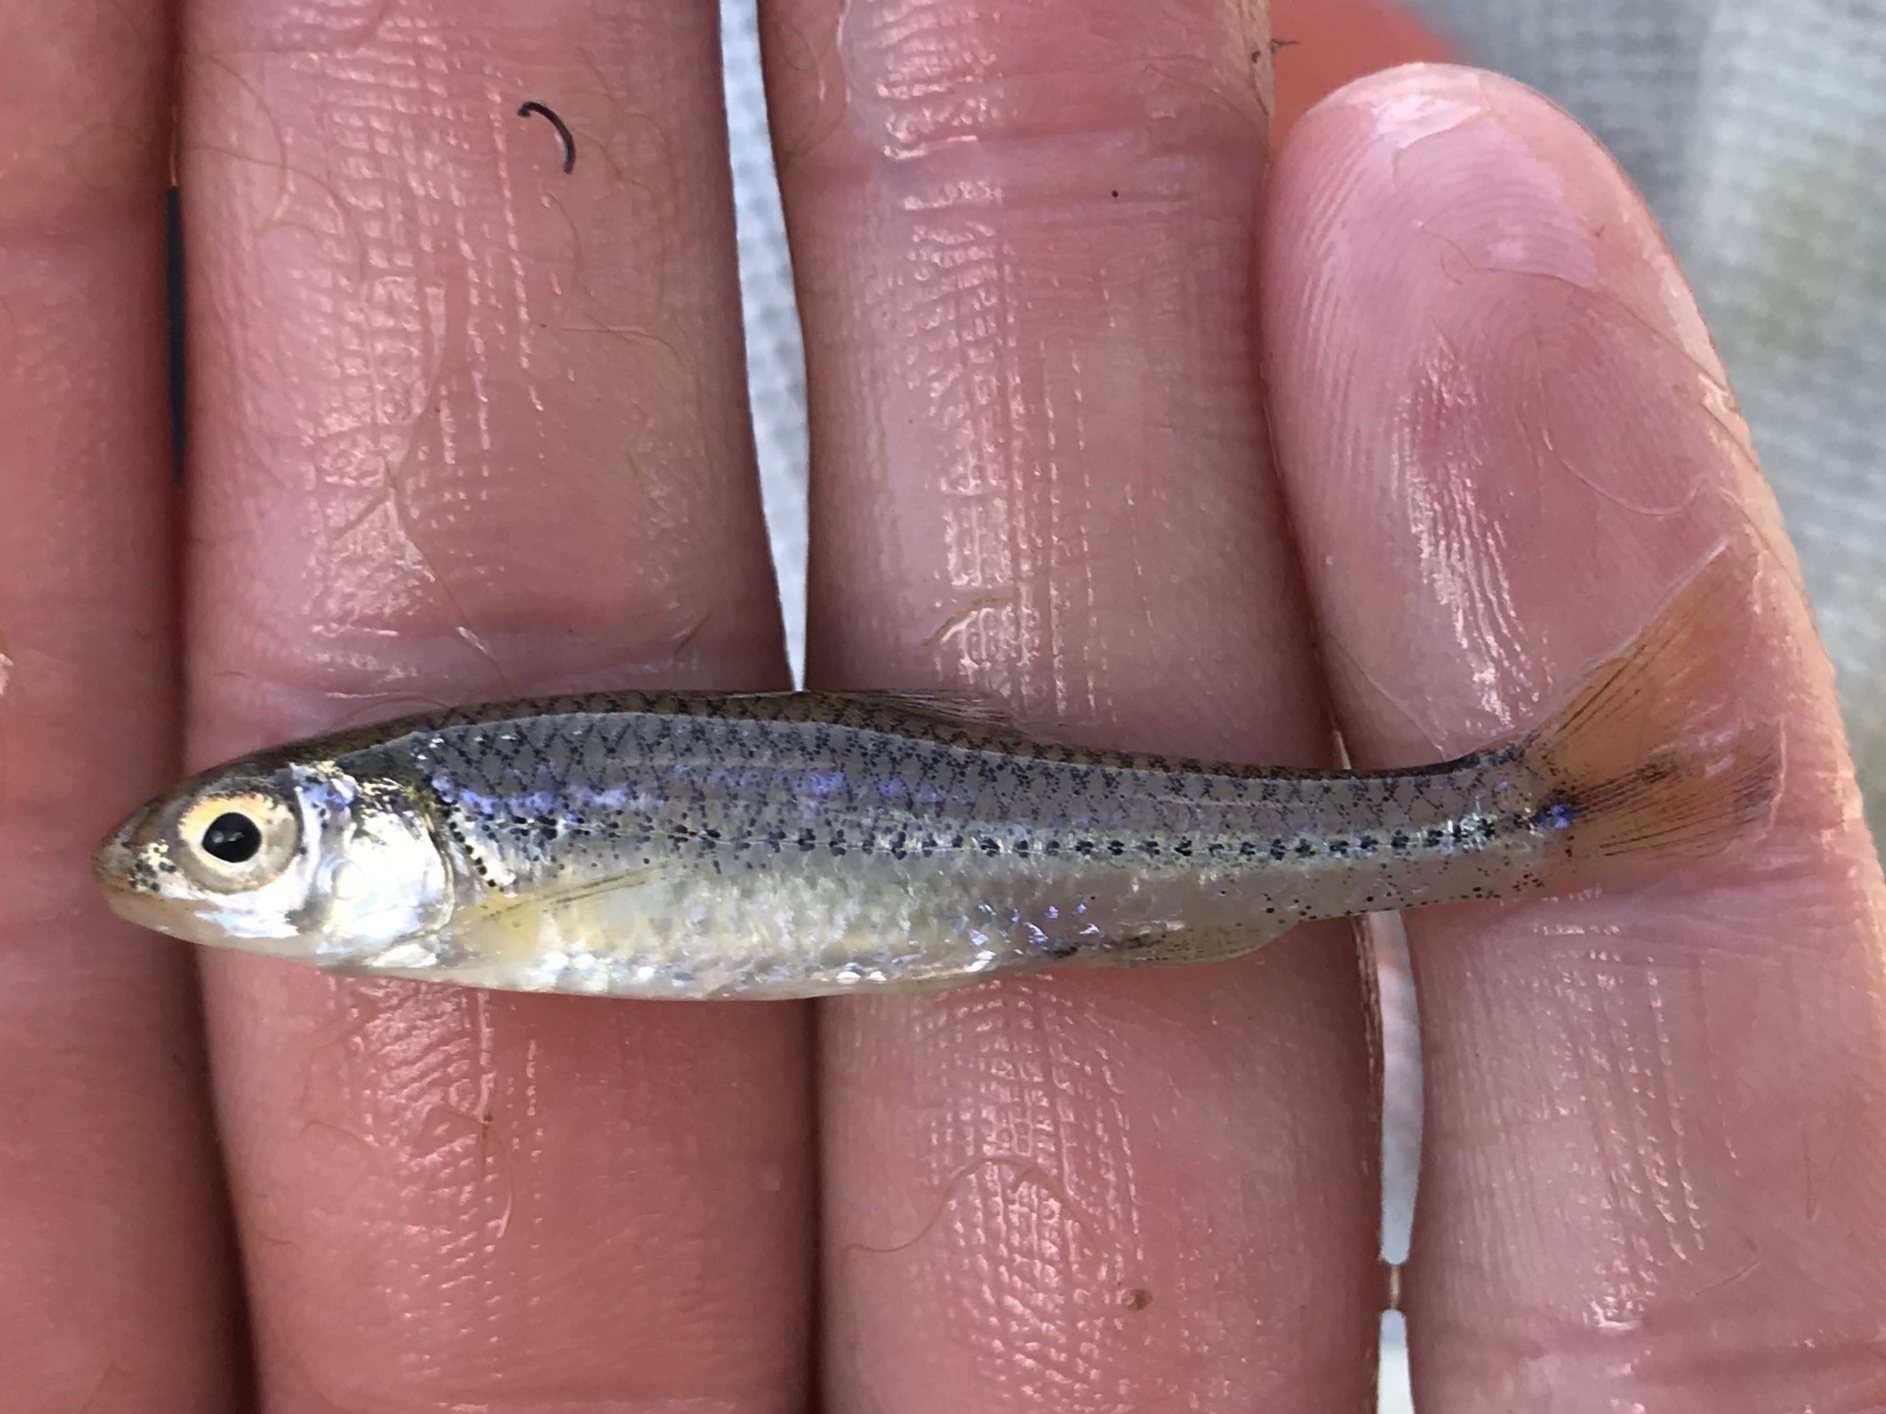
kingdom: Animalia
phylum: Chordata
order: Cypriniformes
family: Cyprinidae
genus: Notropis
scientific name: Notropis
